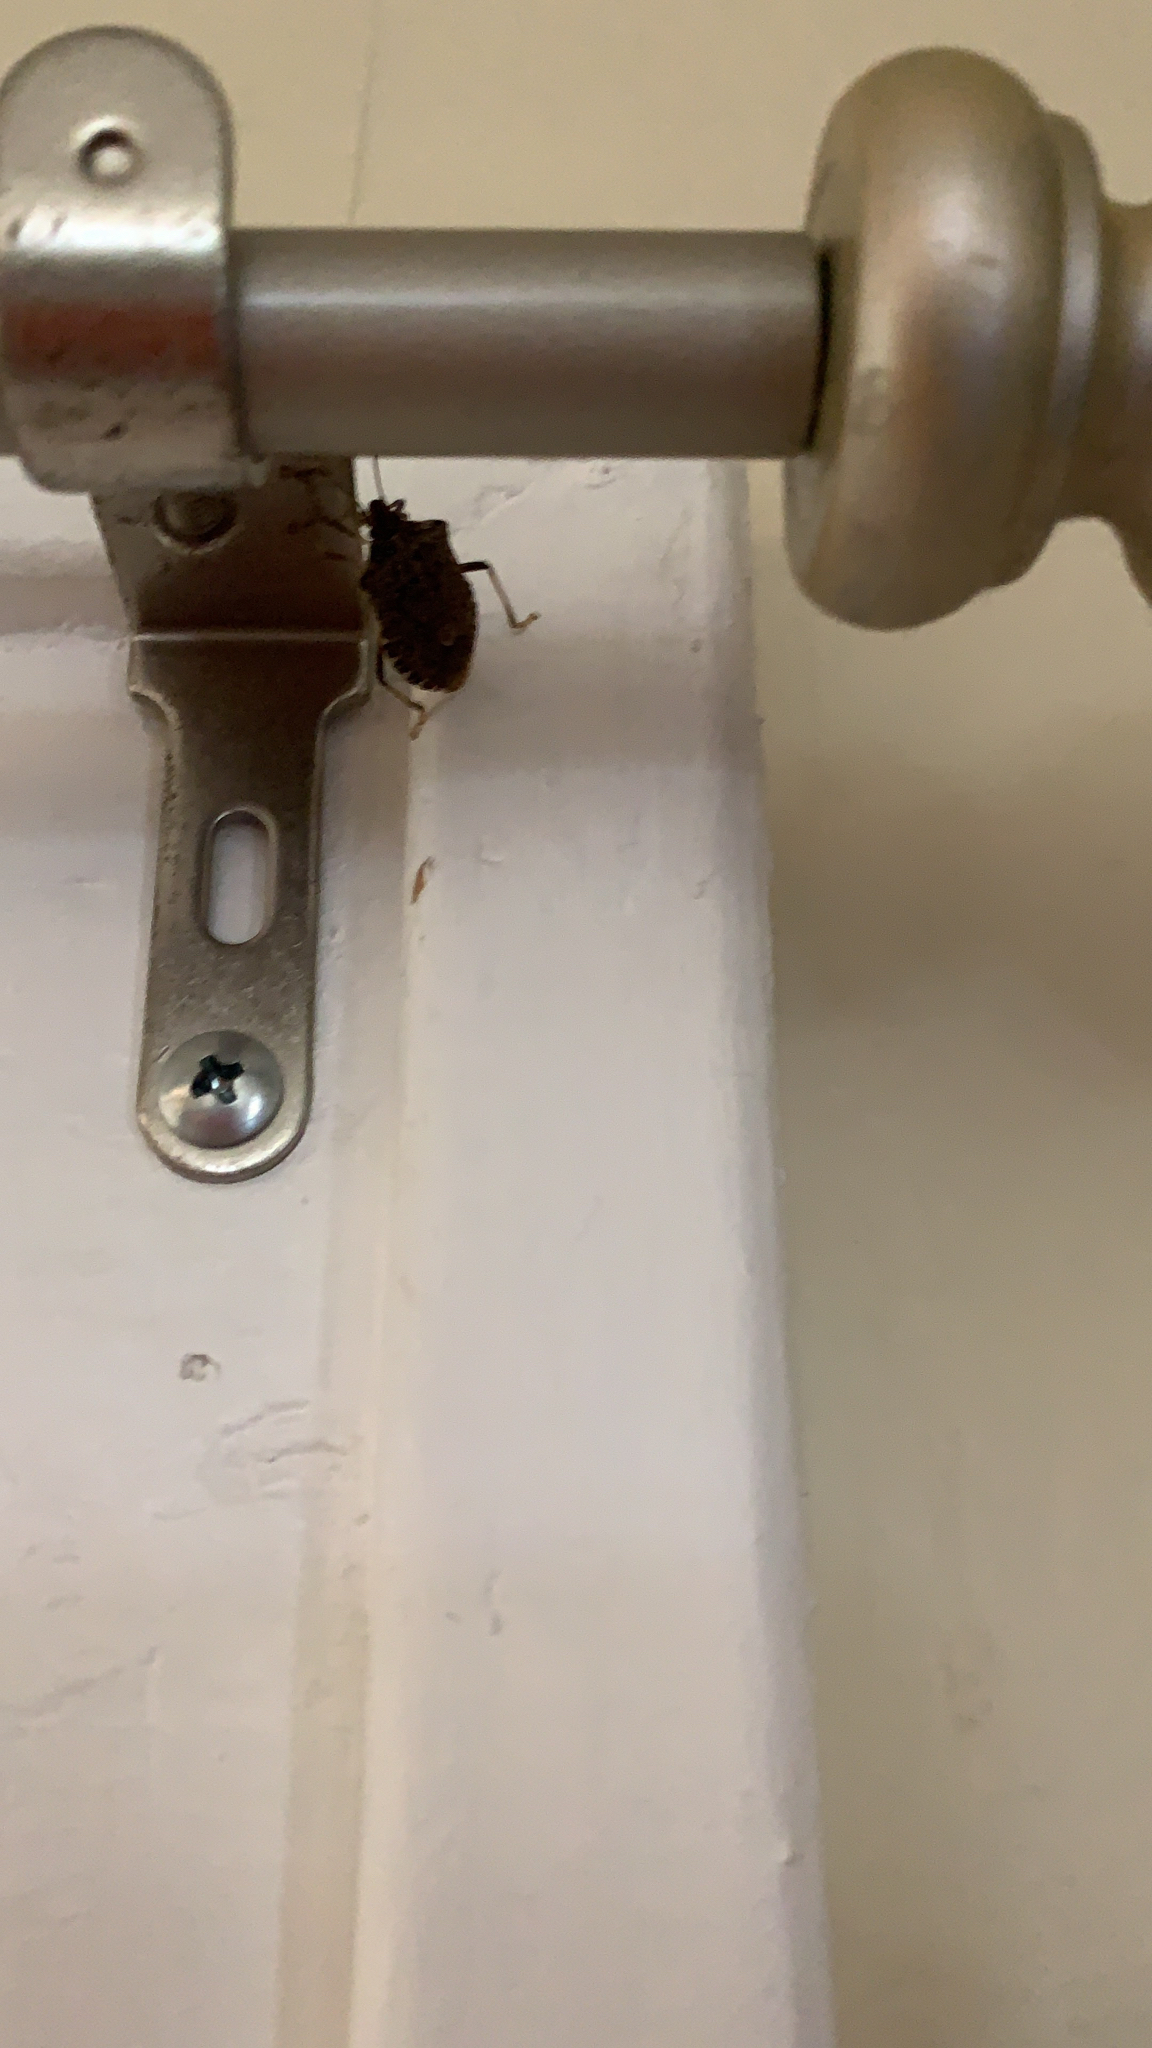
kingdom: Animalia
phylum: Arthropoda
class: Insecta
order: Hemiptera
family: Pentatomidae
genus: Halyomorpha
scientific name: Halyomorpha halys
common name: Brown marmorated stink bug
